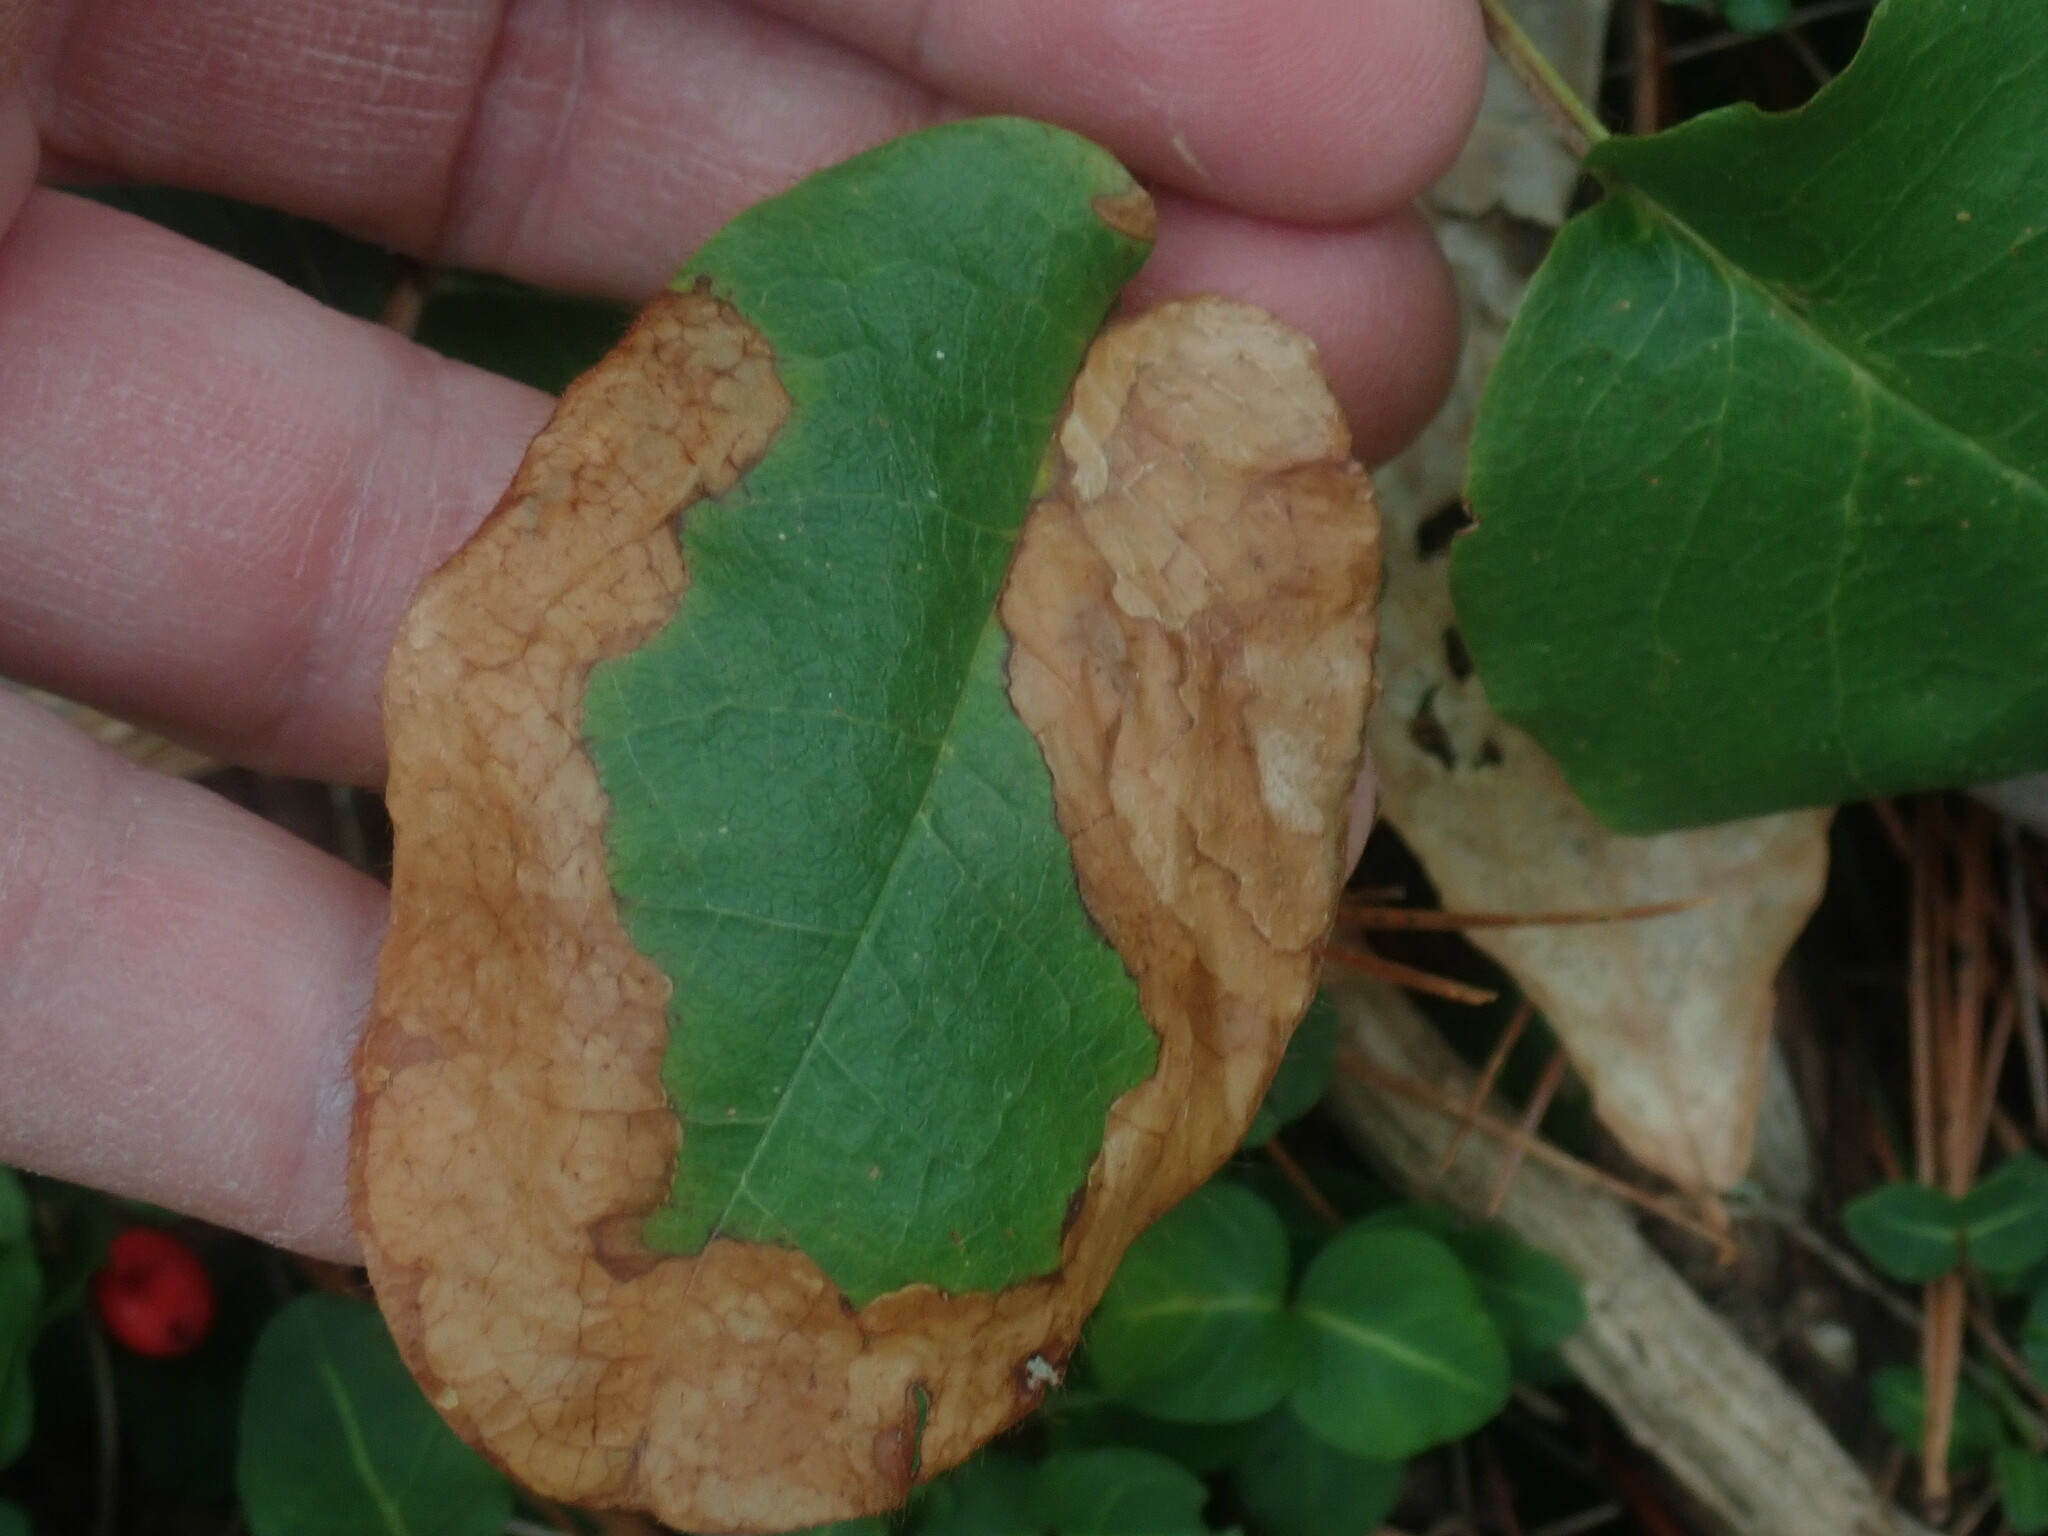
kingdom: Animalia
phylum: Arthropoda
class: Insecta
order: Coleoptera
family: Buprestidae
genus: Brachys
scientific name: Brachys
